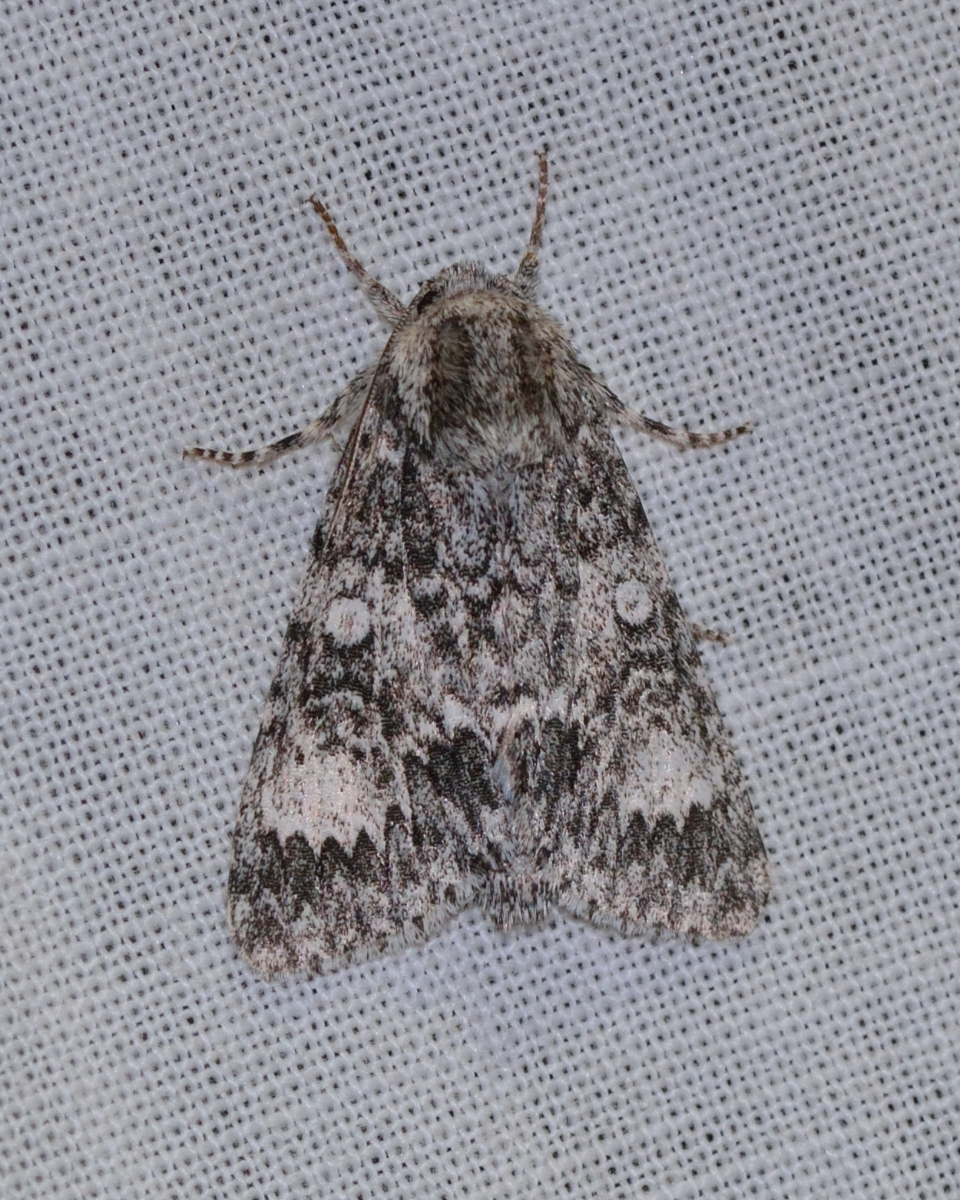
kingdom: Animalia
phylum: Arthropoda
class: Insecta
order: Lepidoptera
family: Noctuidae
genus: Acronicta
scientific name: Acronicta megacephala
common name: Poplar grey
